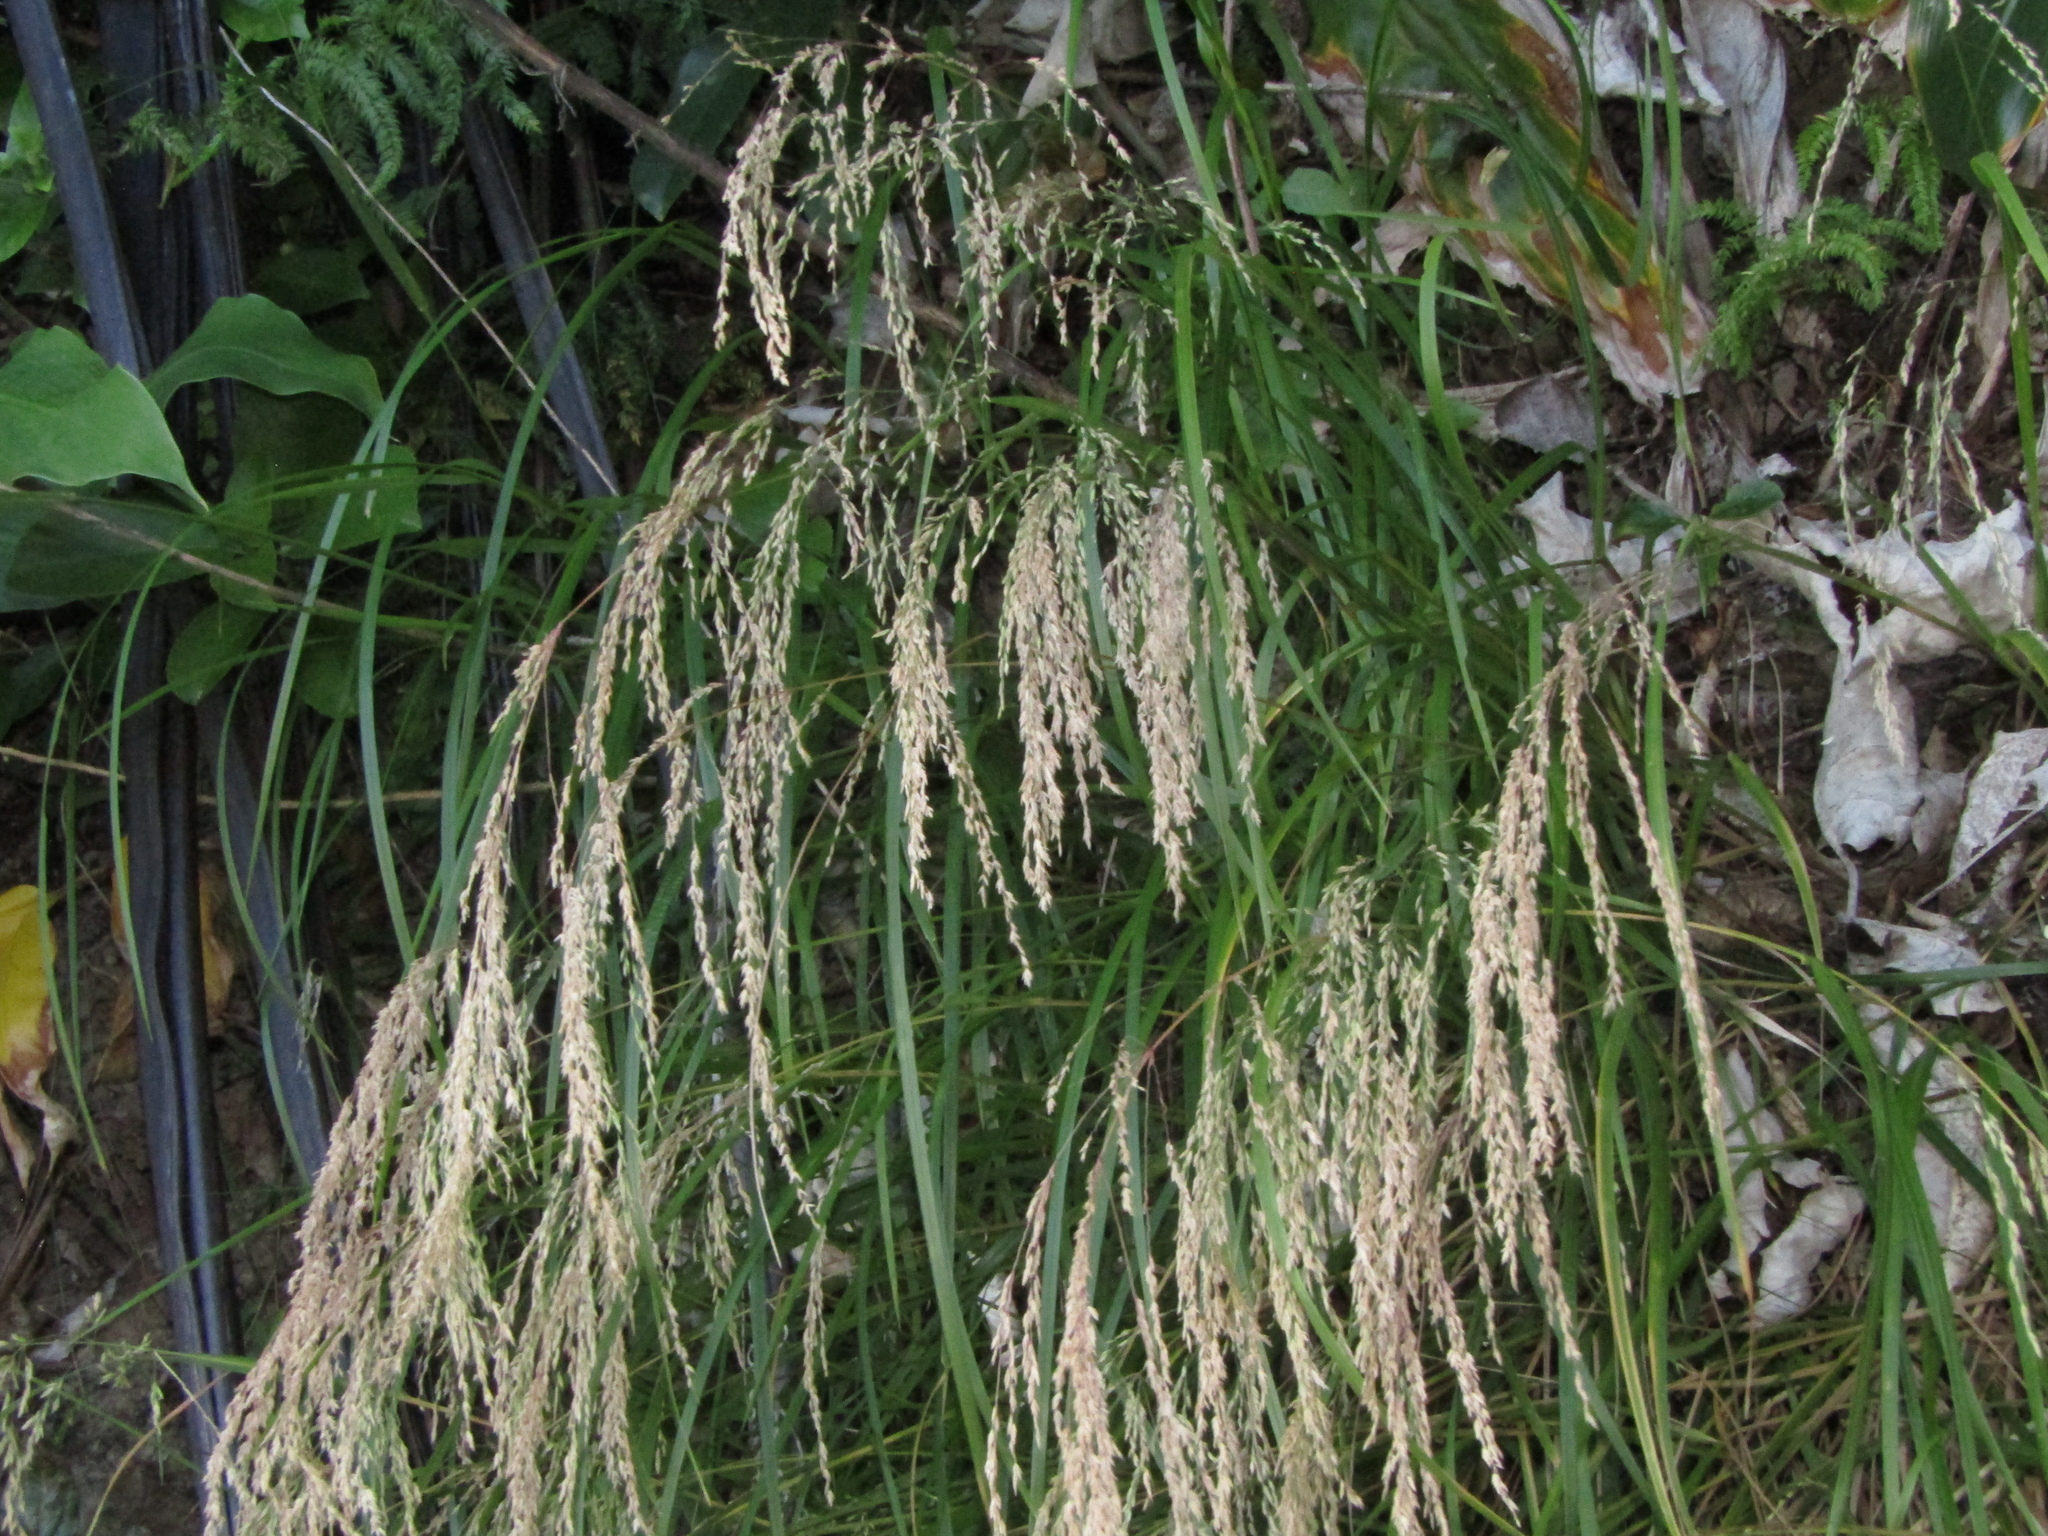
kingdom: Plantae
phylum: Tracheophyta
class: Liliopsida
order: Poales
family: Poaceae
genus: Poa
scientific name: Poa anceps
